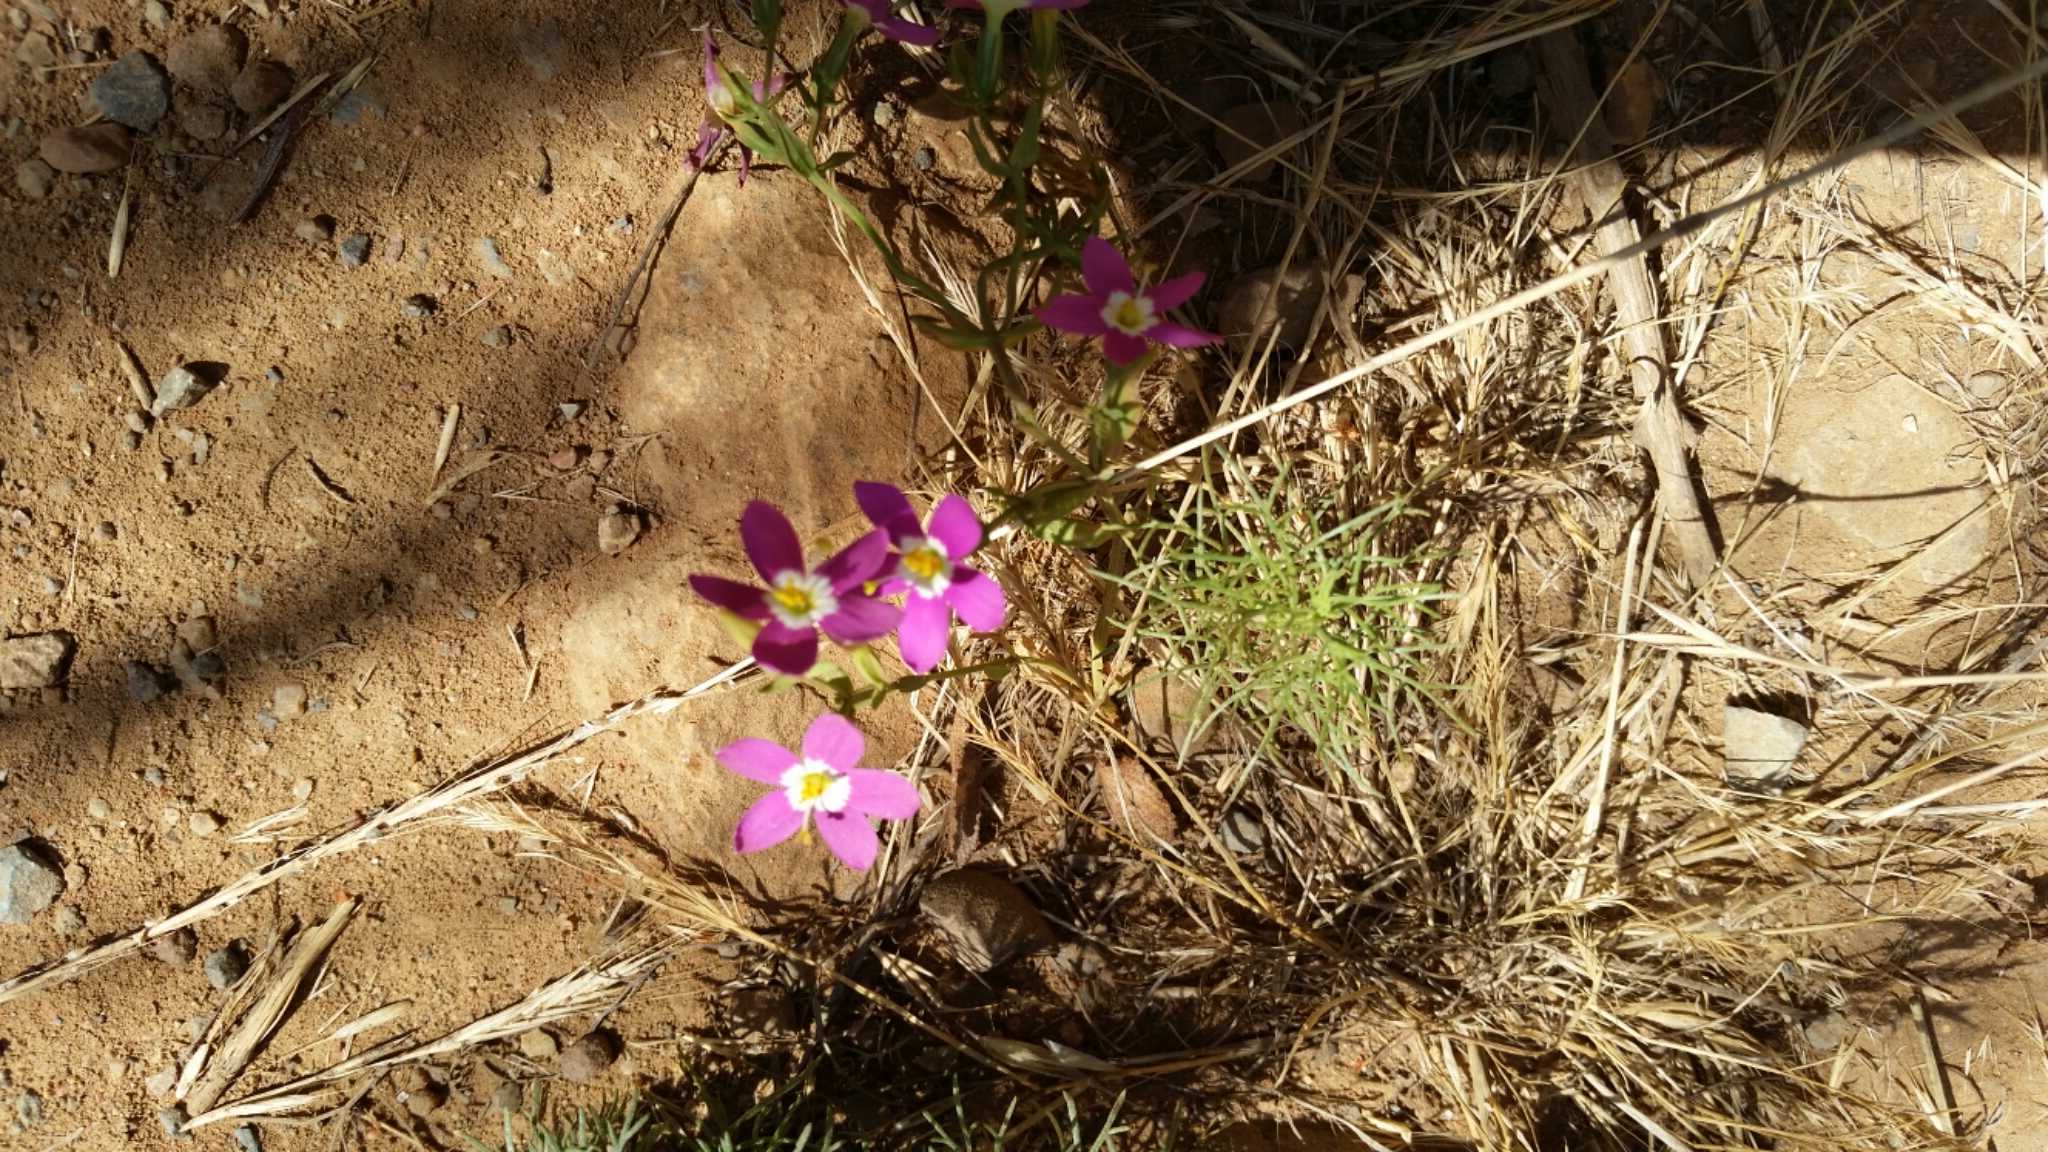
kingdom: Plantae
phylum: Tracheophyta
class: Magnoliopsida
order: Gentianales
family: Gentianaceae
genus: Zeltnera
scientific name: Zeltnera venusta
